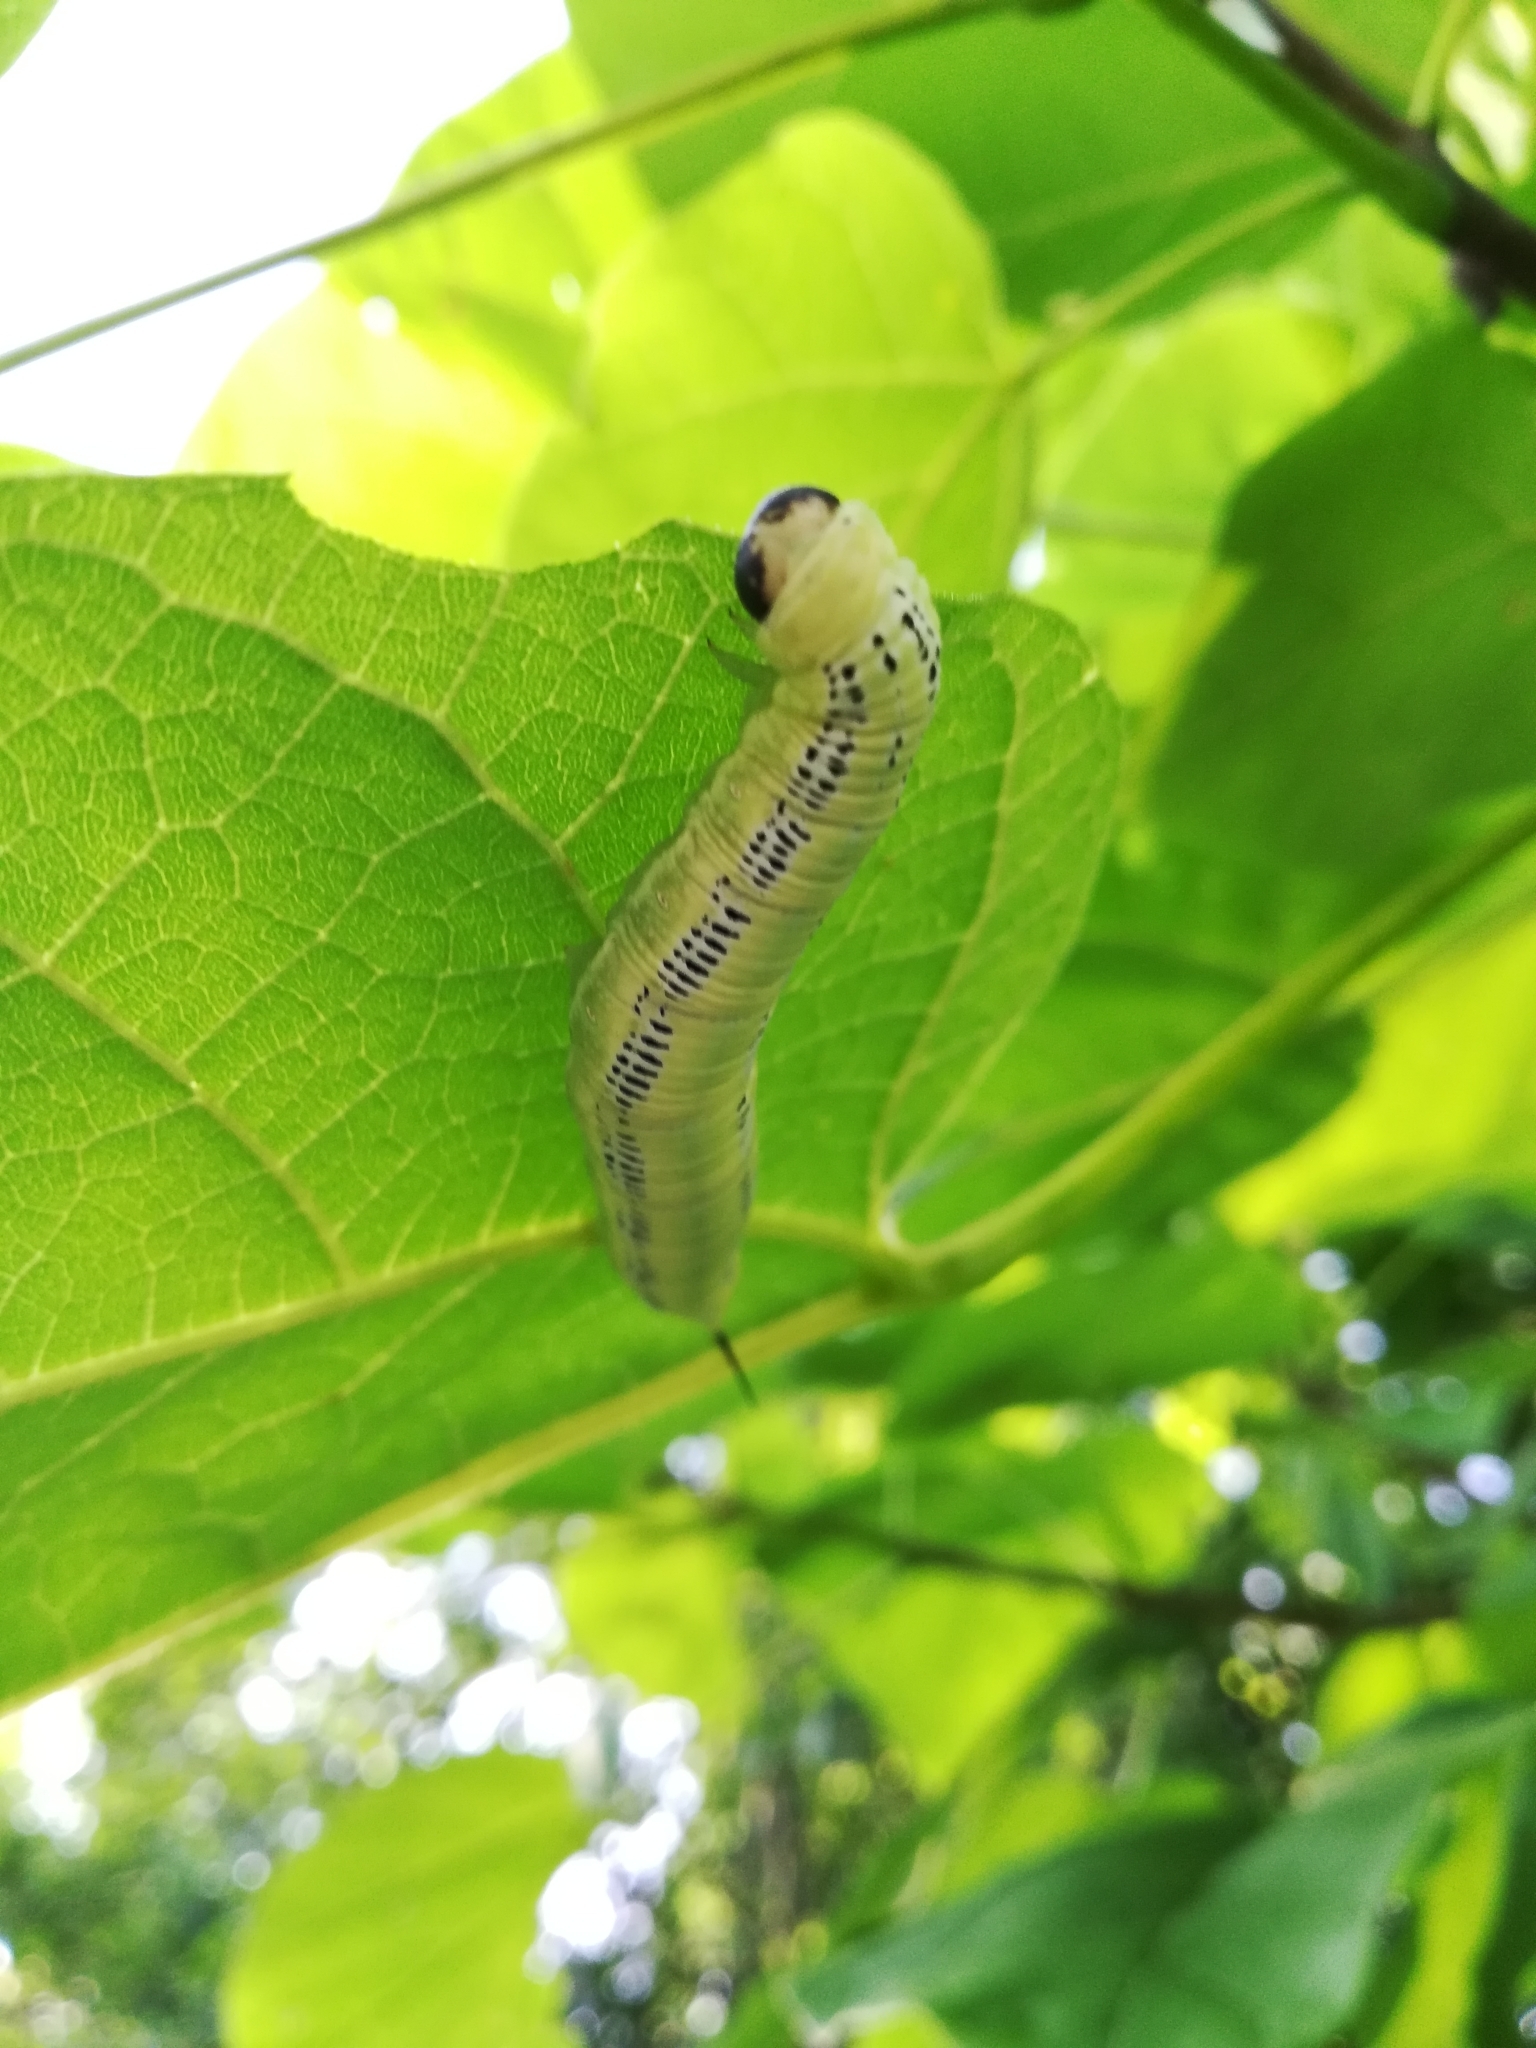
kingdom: Animalia
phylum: Arthropoda
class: Insecta
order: Lepidoptera
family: Sphingidae
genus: Ceratomia
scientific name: Ceratomia catalpae
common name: Catalpa hornworm
